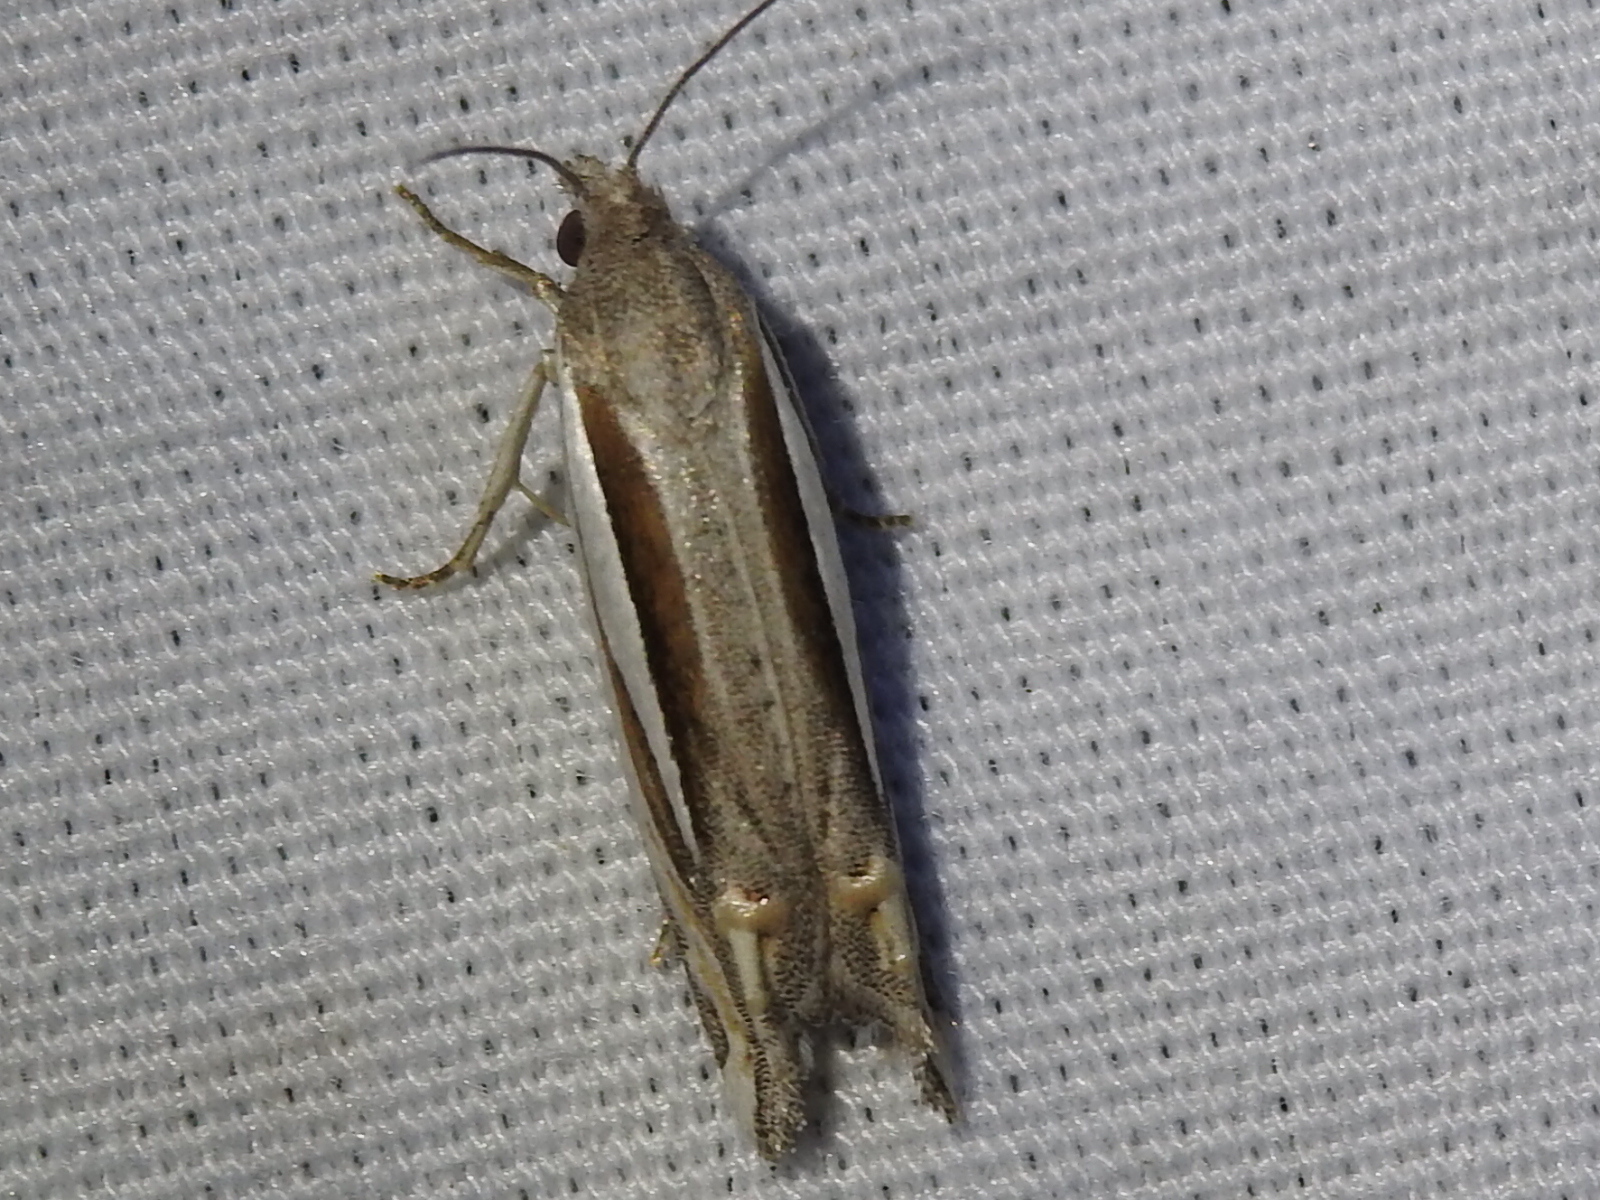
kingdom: Animalia
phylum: Arthropoda
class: Insecta
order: Lepidoptera
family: Tortricidae
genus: Eucosma
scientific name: Eucosma spiculana
